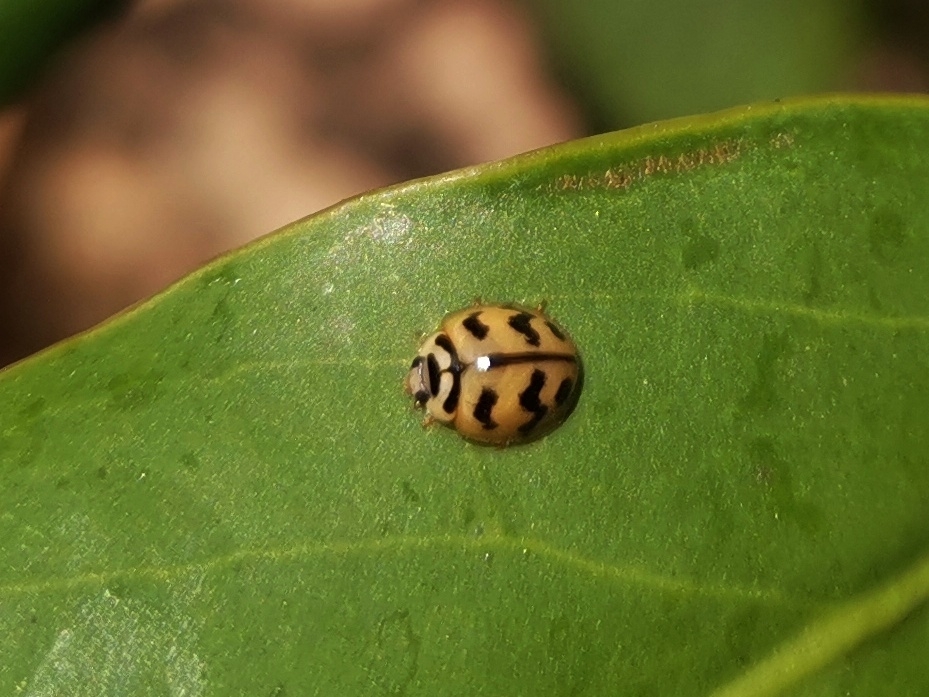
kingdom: Animalia
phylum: Arthropoda
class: Insecta
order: Coleoptera
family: Coccinellidae
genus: Cheilomenes
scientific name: Cheilomenes sexmaculata
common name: Ladybird beetle
